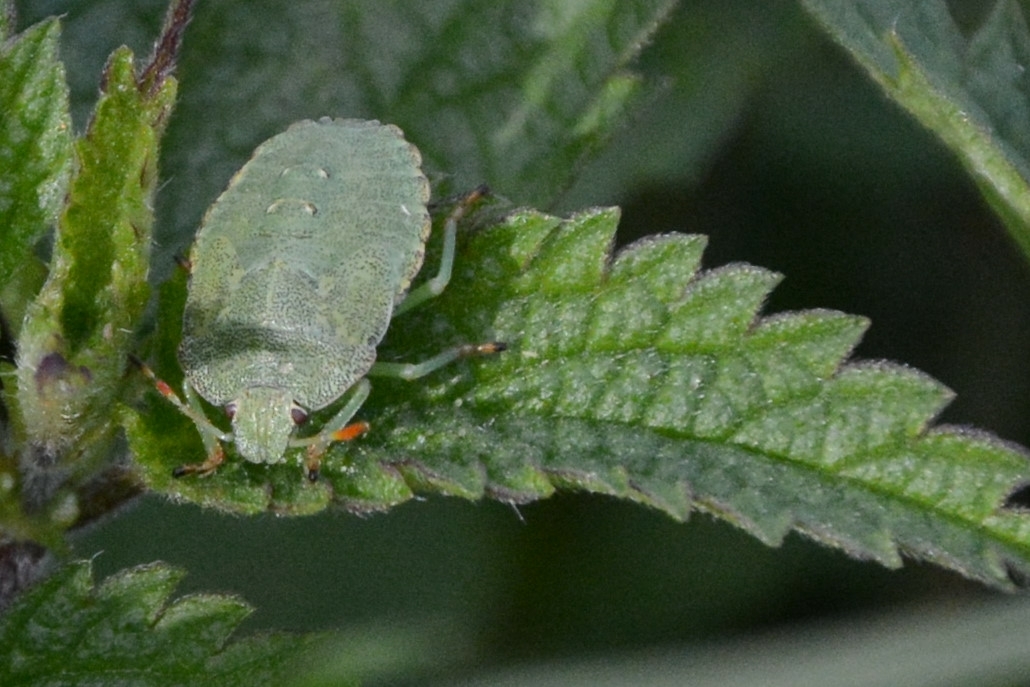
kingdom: Animalia
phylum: Arthropoda
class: Insecta
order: Hemiptera
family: Pentatomidae
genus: Palomena
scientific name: Palomena prasina
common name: Green shieldbug
